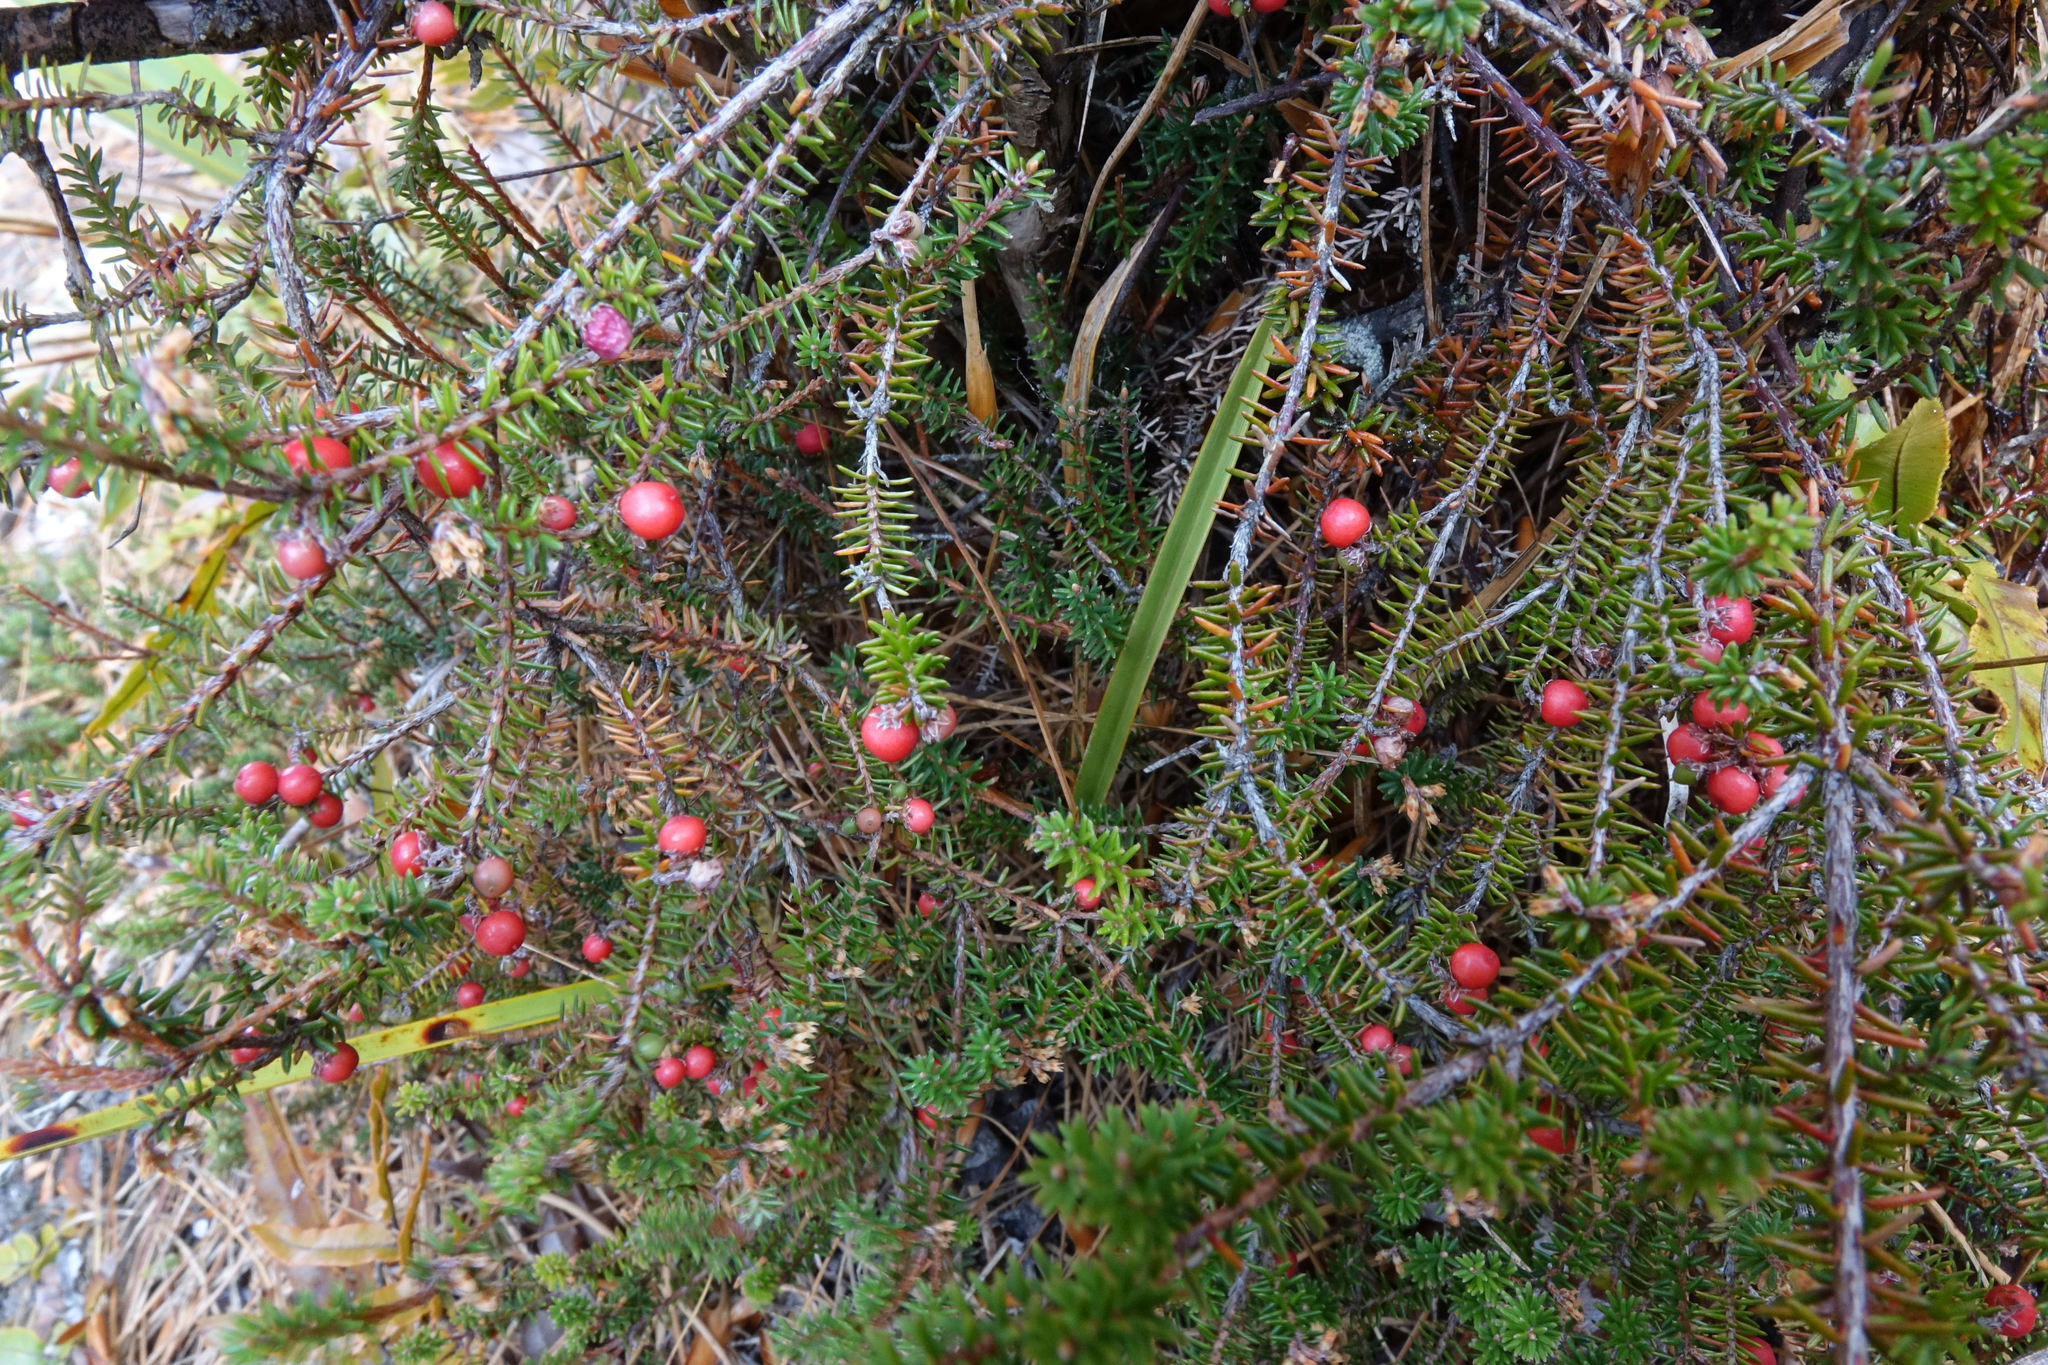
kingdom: Plantae
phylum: Tracheophyta
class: Magnoliopsida
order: Ericales
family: Ericaceae
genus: Androstoma
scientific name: Androstoma empetrifolia
